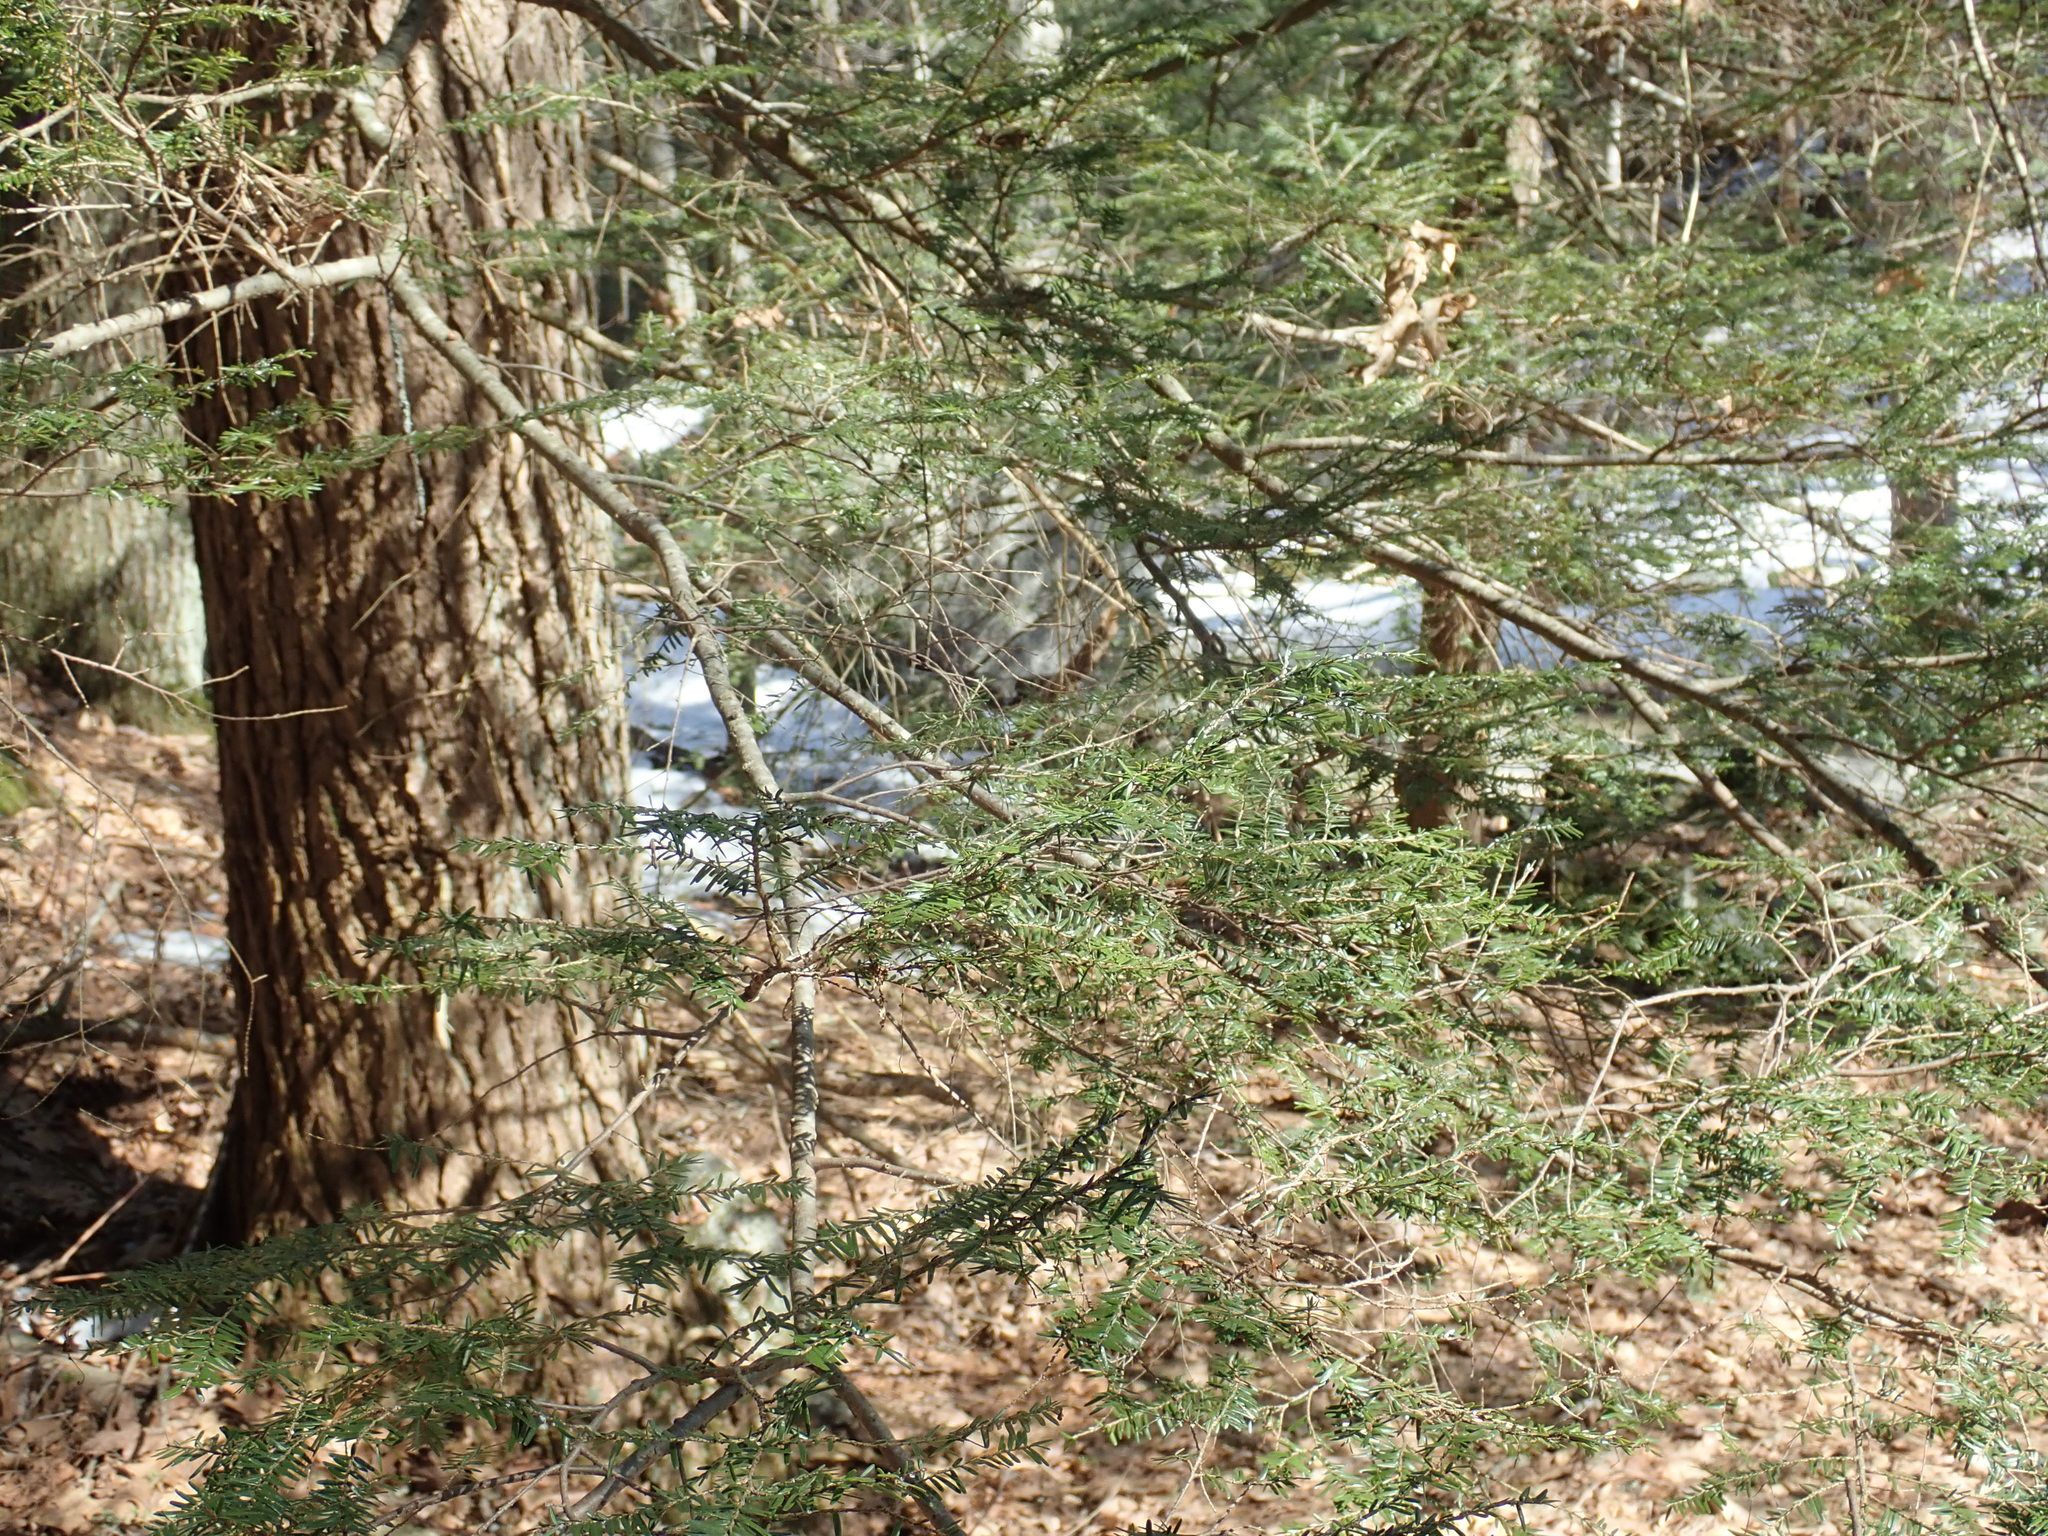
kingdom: Plantae
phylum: Tracheophyta
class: Pinopsida
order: Pinales
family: Pinaceae
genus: Tsuga
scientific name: Tsuga canadensis
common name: Eastern hemlock
